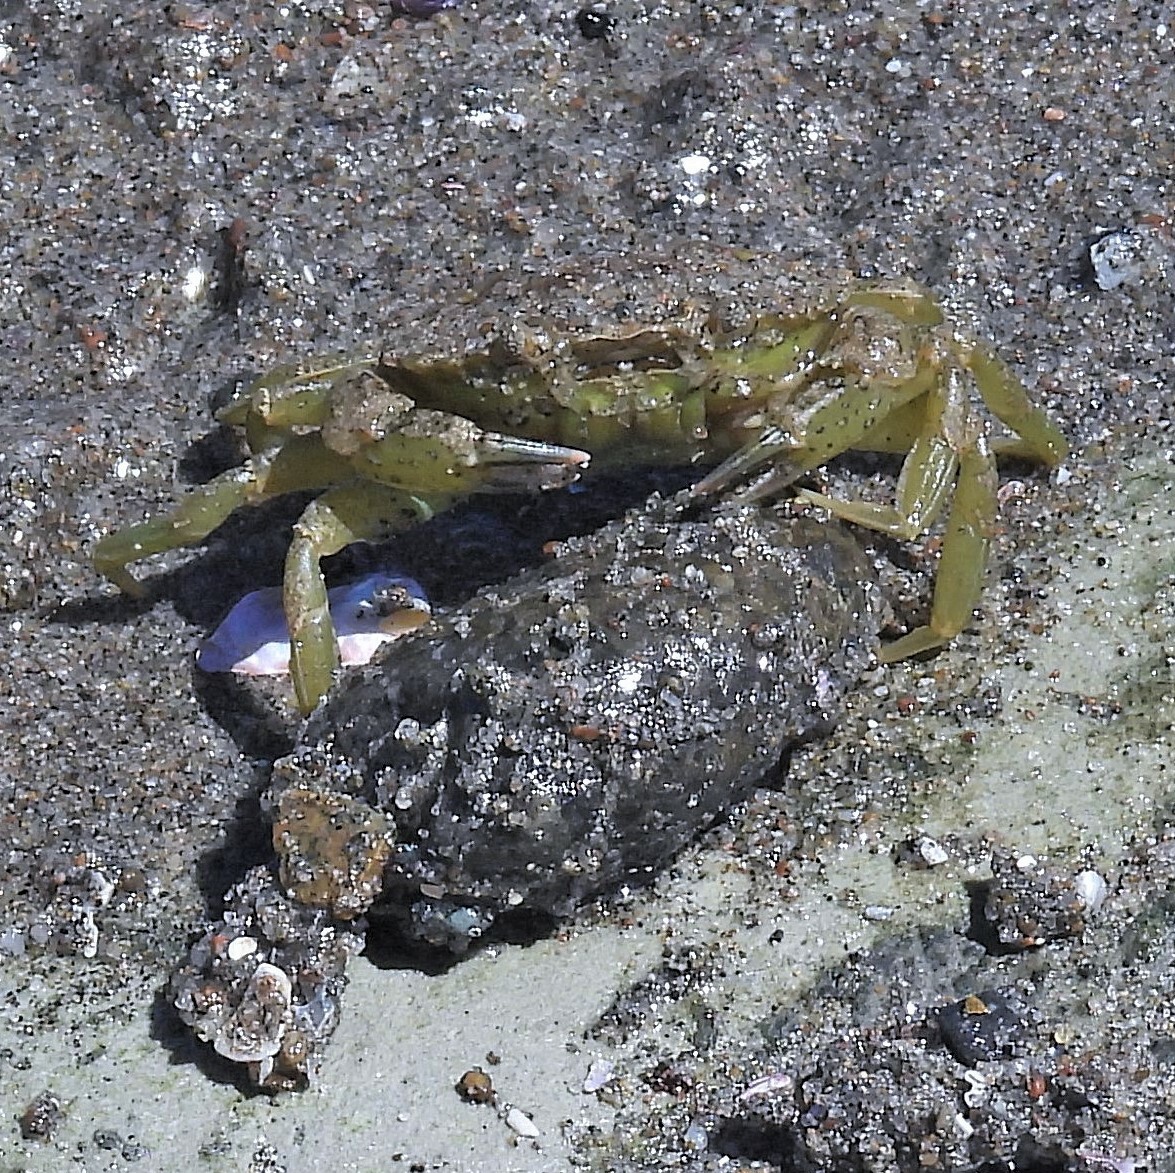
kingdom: Animalia
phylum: Arthropoda
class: Malacostraca
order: Decapoda
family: Carcinidae
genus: Carcinus
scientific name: Carcinus maenas
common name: European green crab
